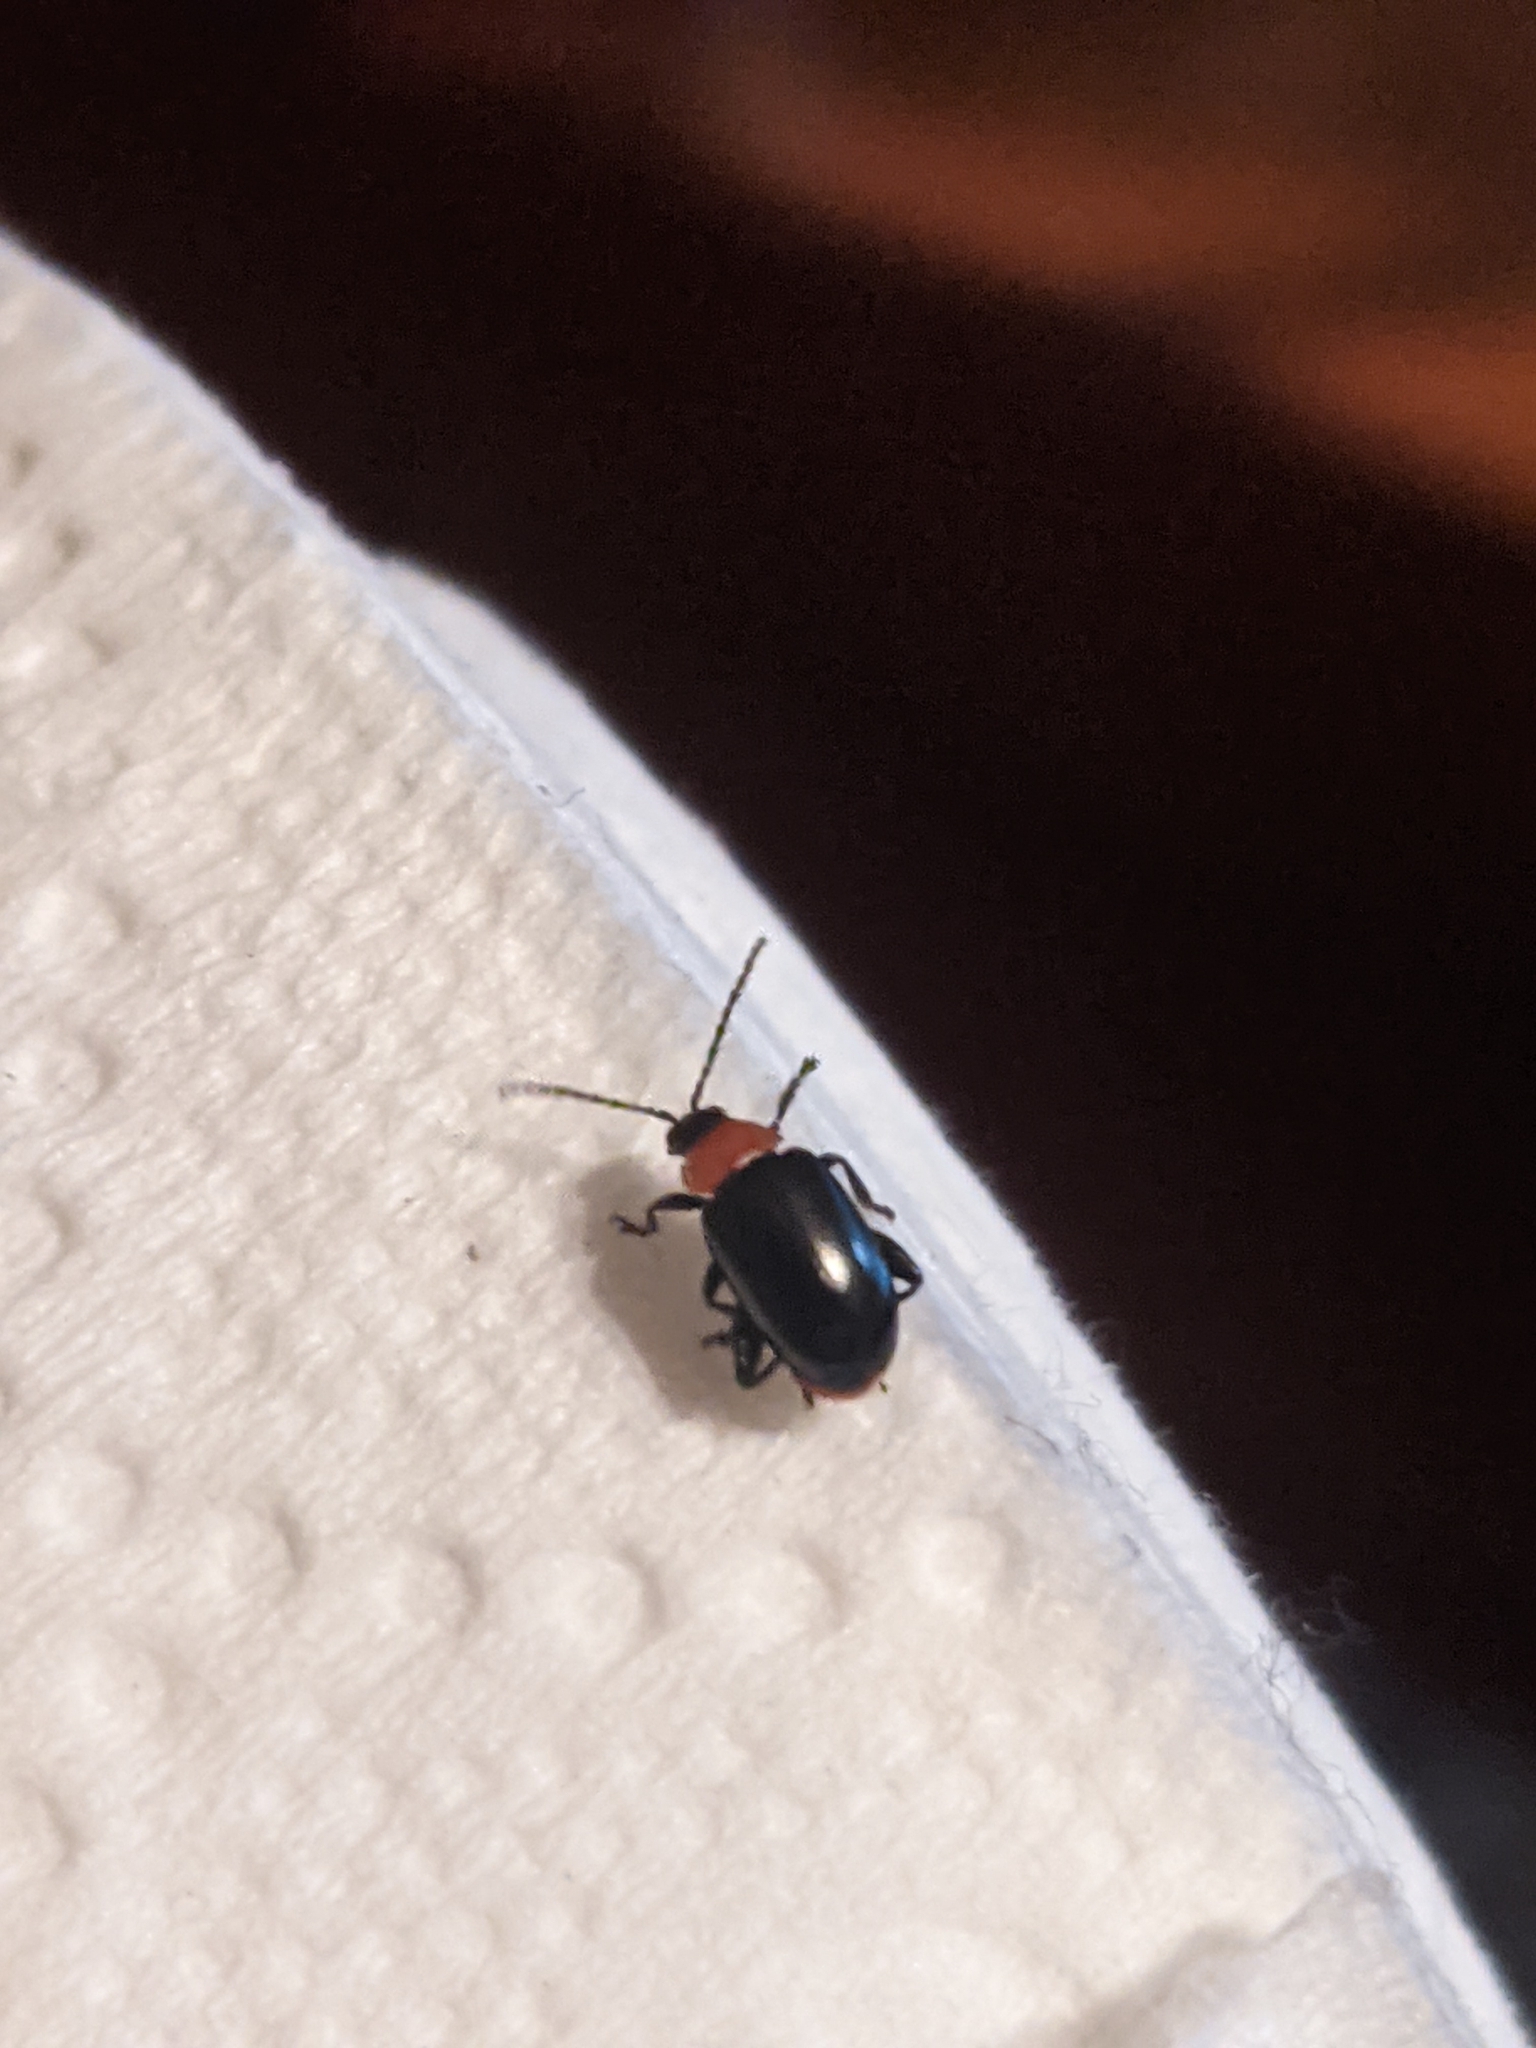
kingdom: Animalia
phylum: Arthropoda
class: Insecta
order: Coleoptera
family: Chrysomelidae
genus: Disonycha
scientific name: Disonycha xanthomelas
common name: Spinach flea beetle
